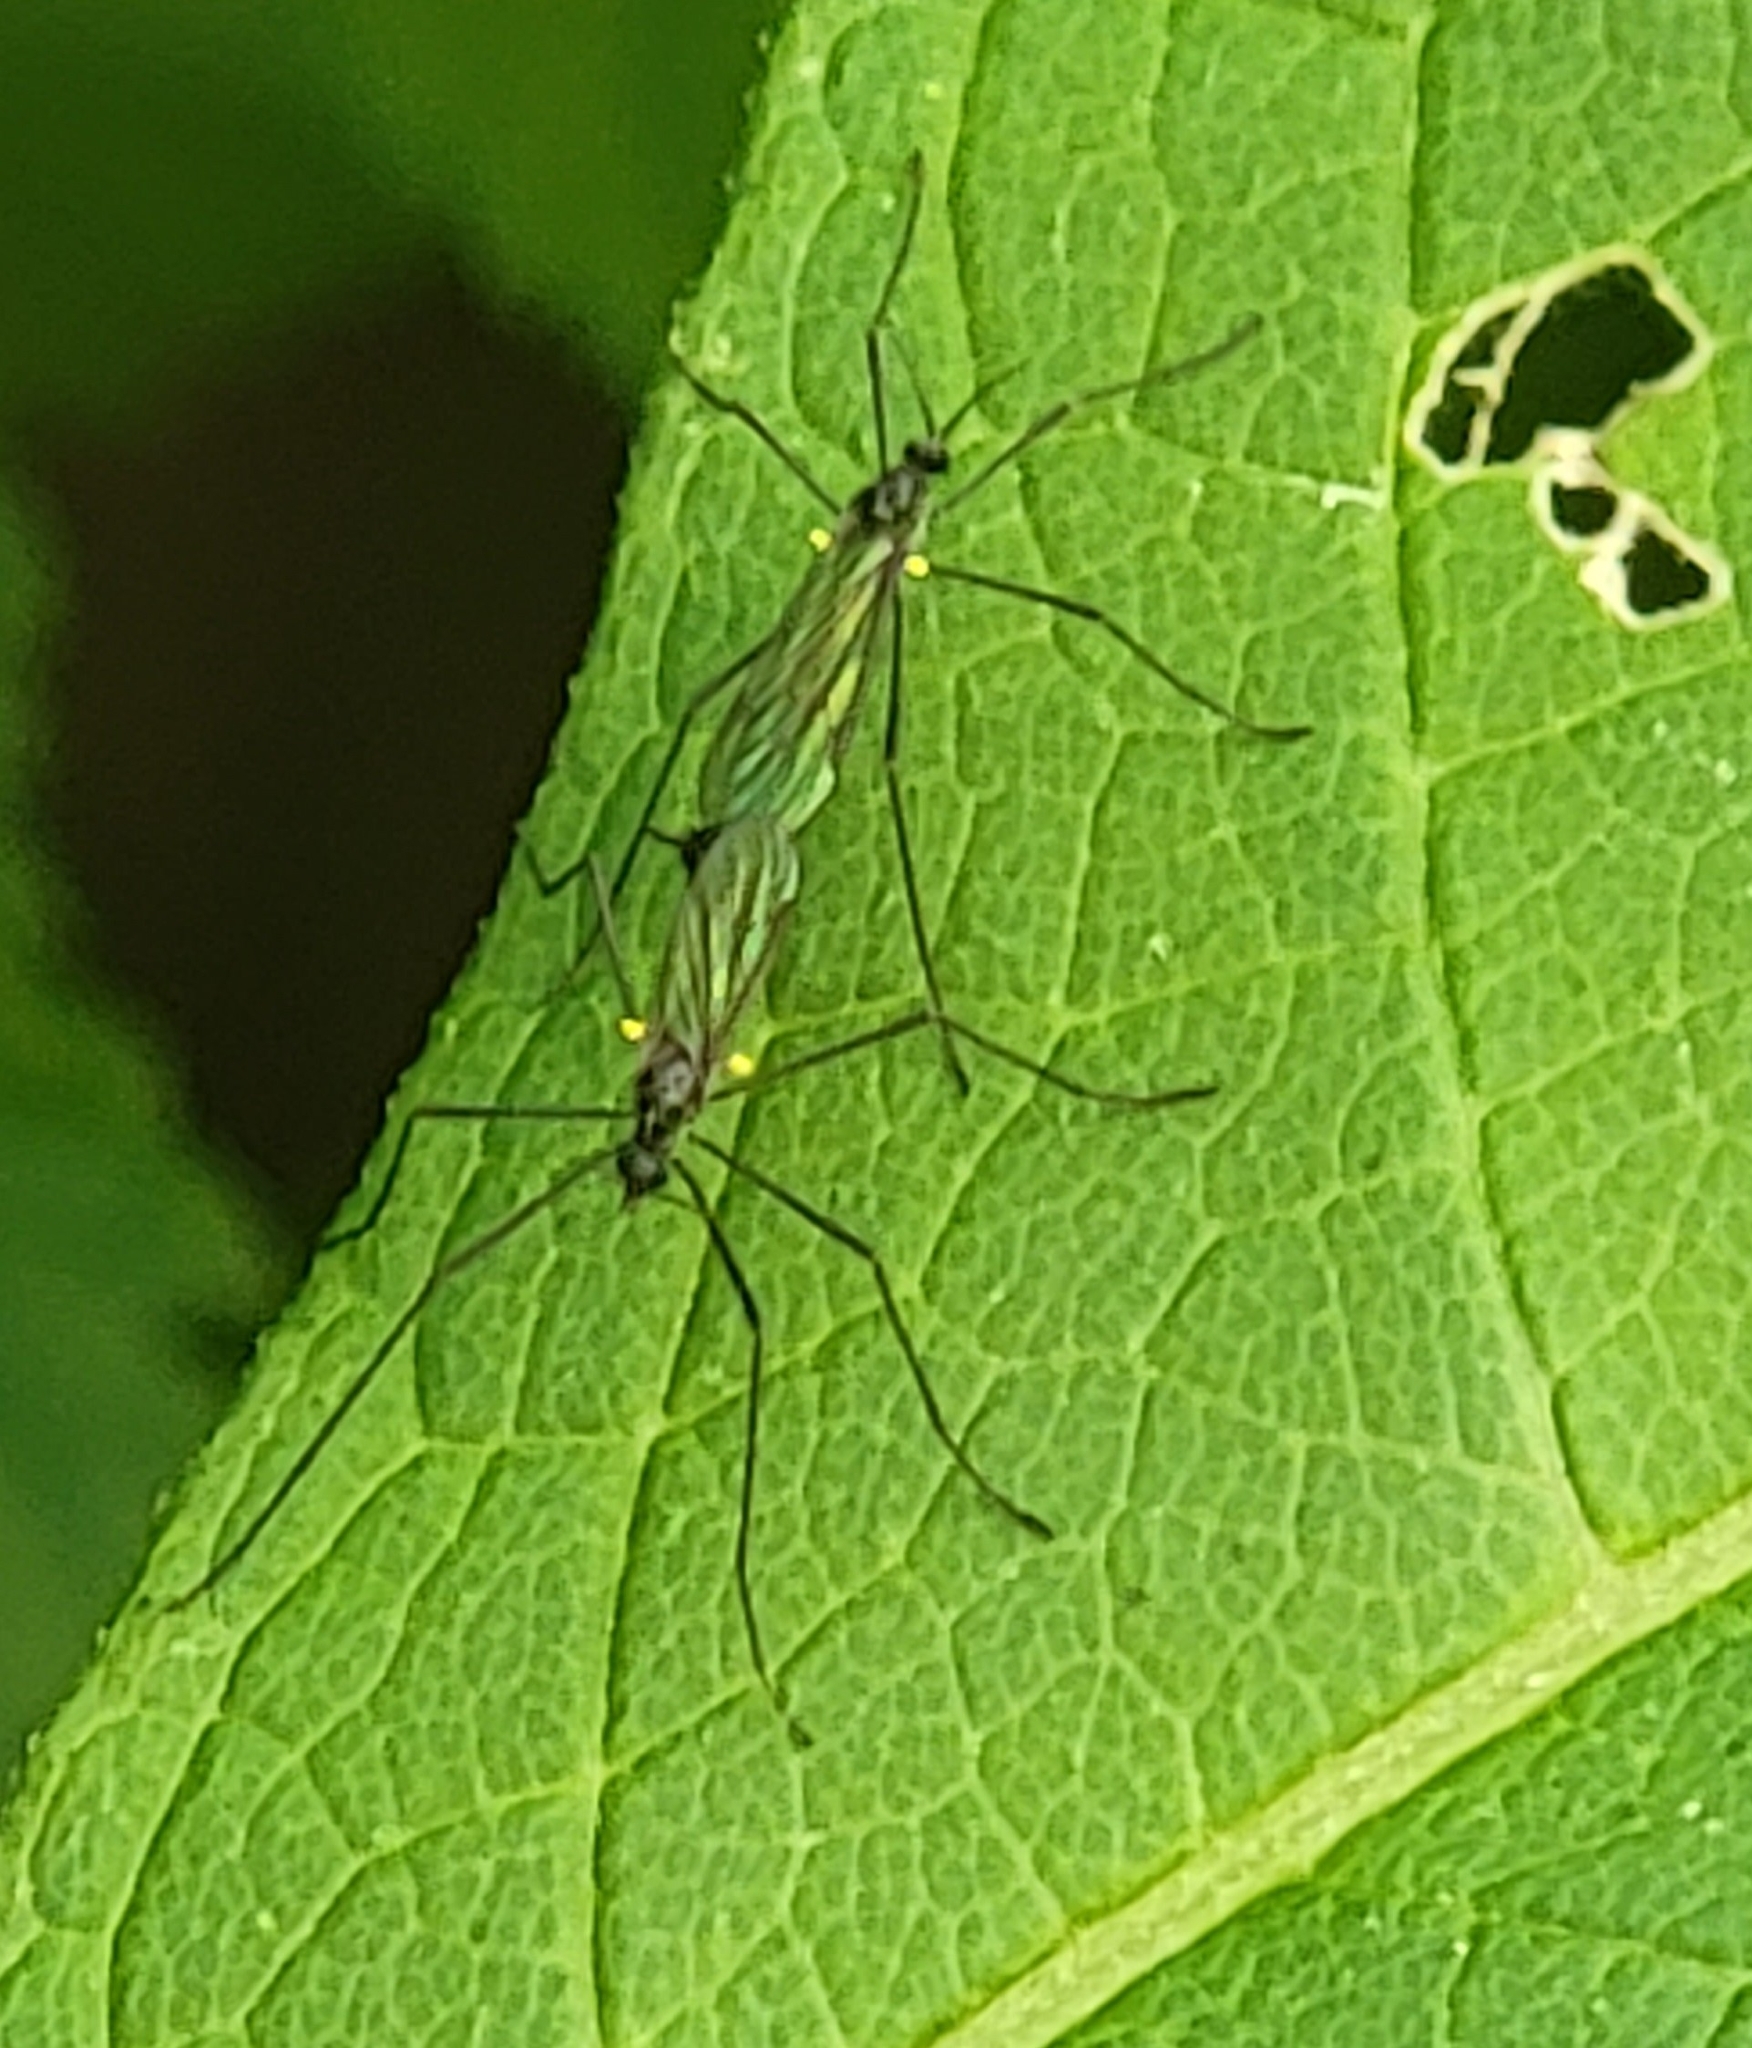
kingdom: Animalia
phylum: Arthropoda
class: Insecta
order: Diptera
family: Limoniidae
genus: Gnophomyia
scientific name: Gnophomyia tristissima
